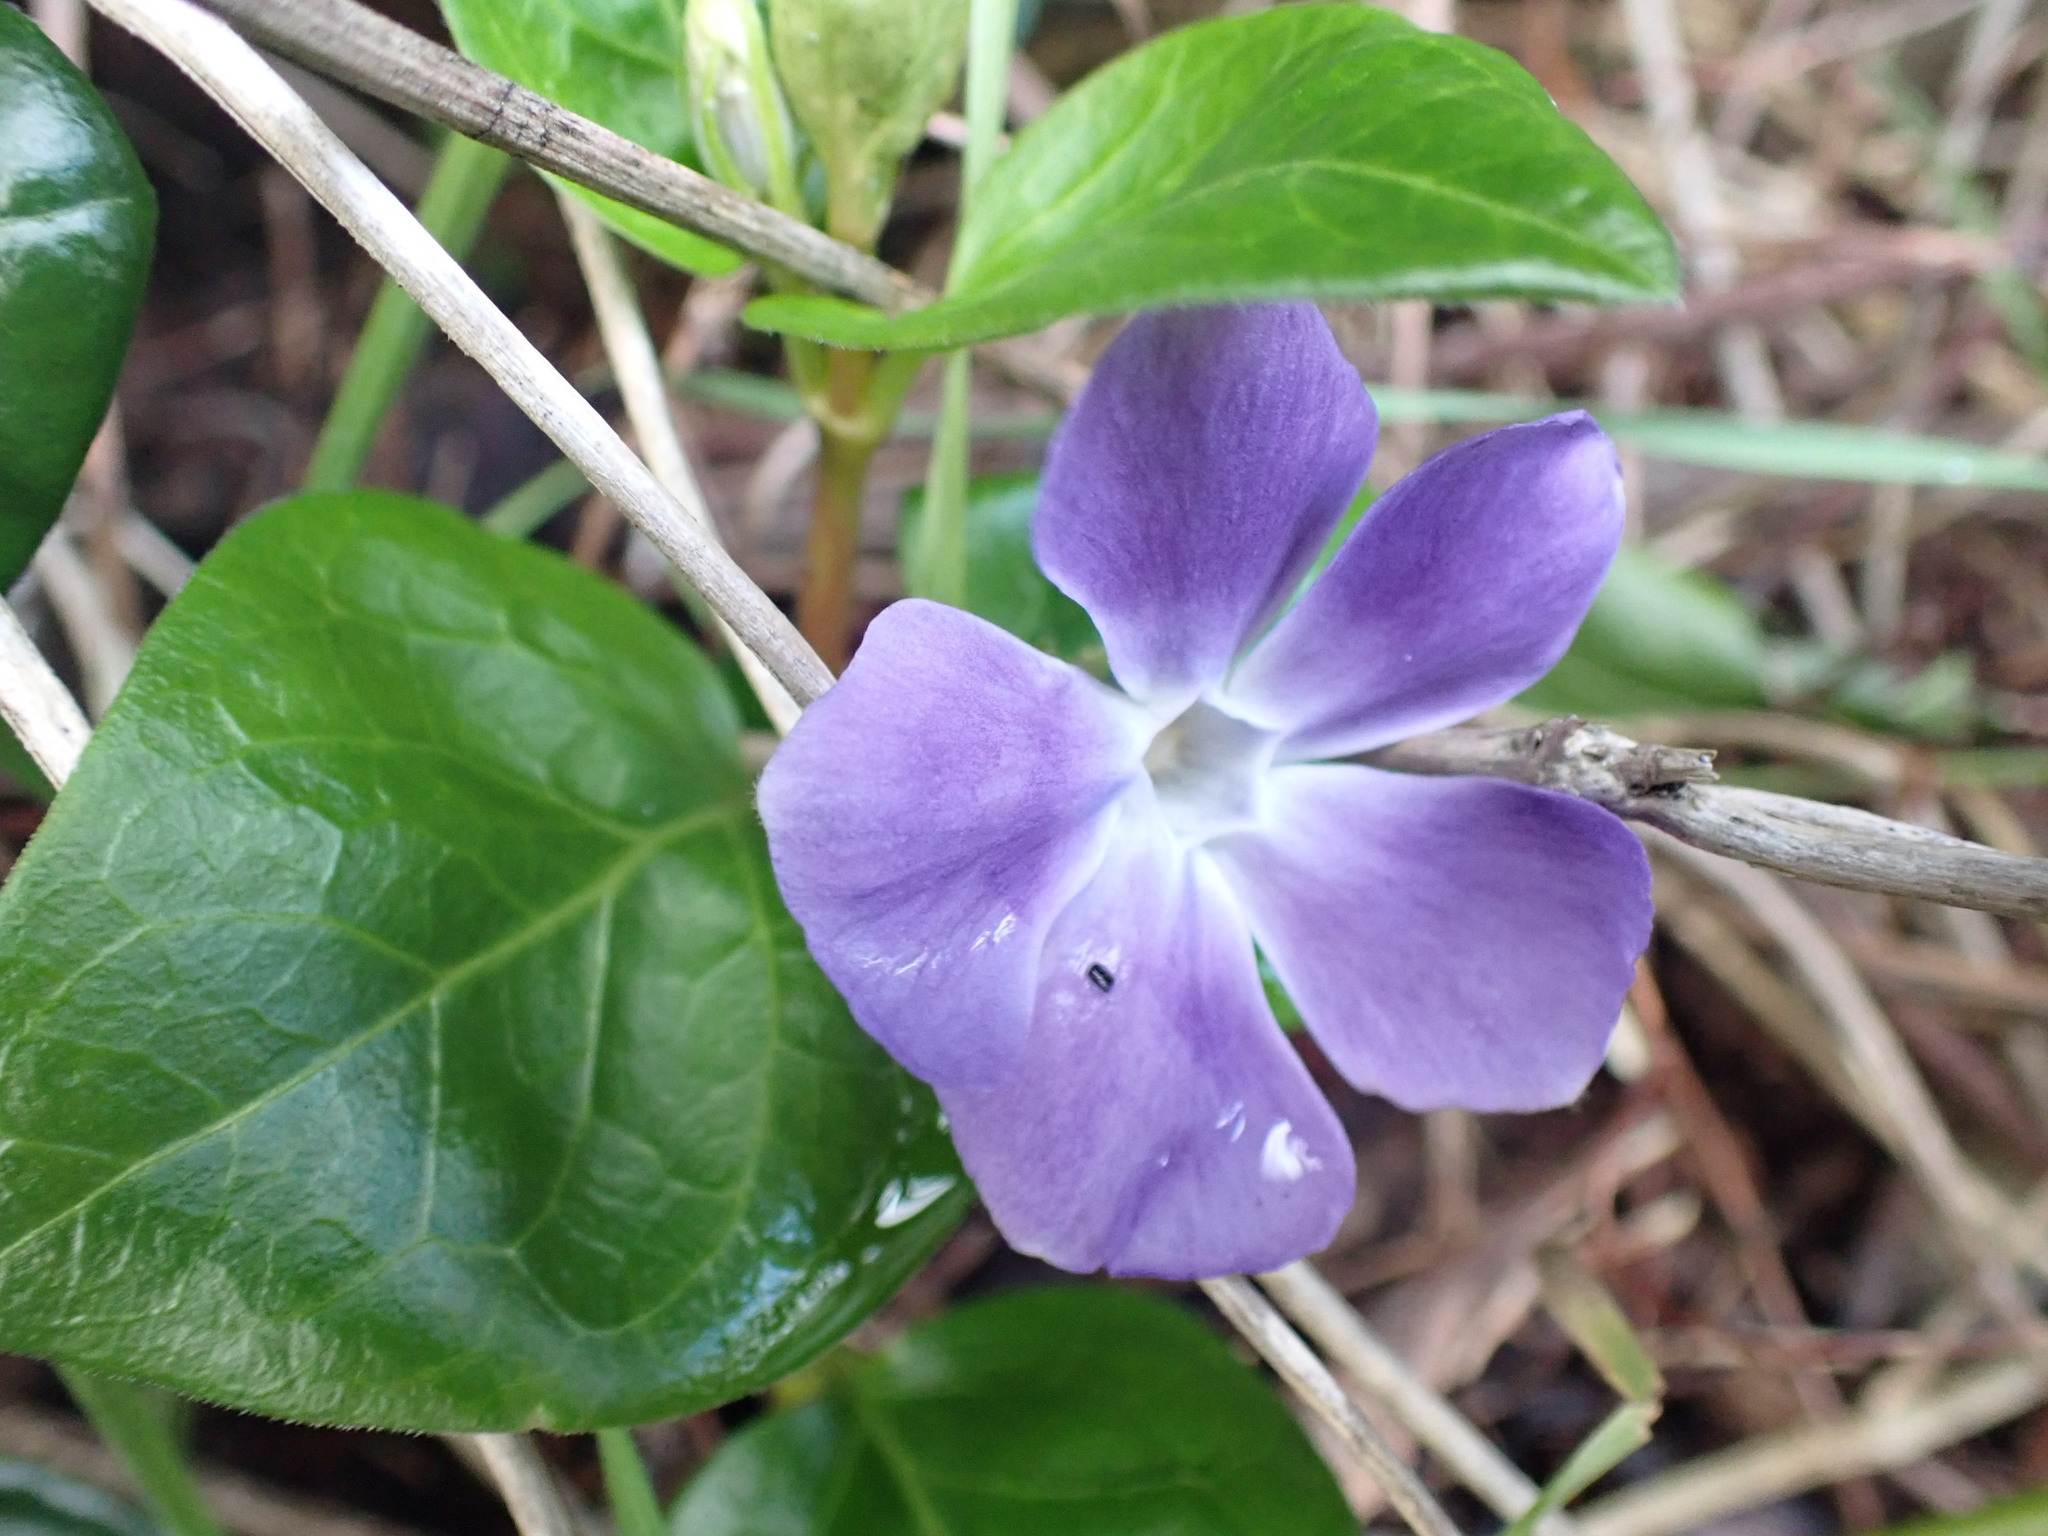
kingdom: Plantae
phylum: Tracheophyta
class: Magnoliopsida
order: Gentianales
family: Apocynaceae
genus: Vinca
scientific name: Vinca major
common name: Greater periwinkle
